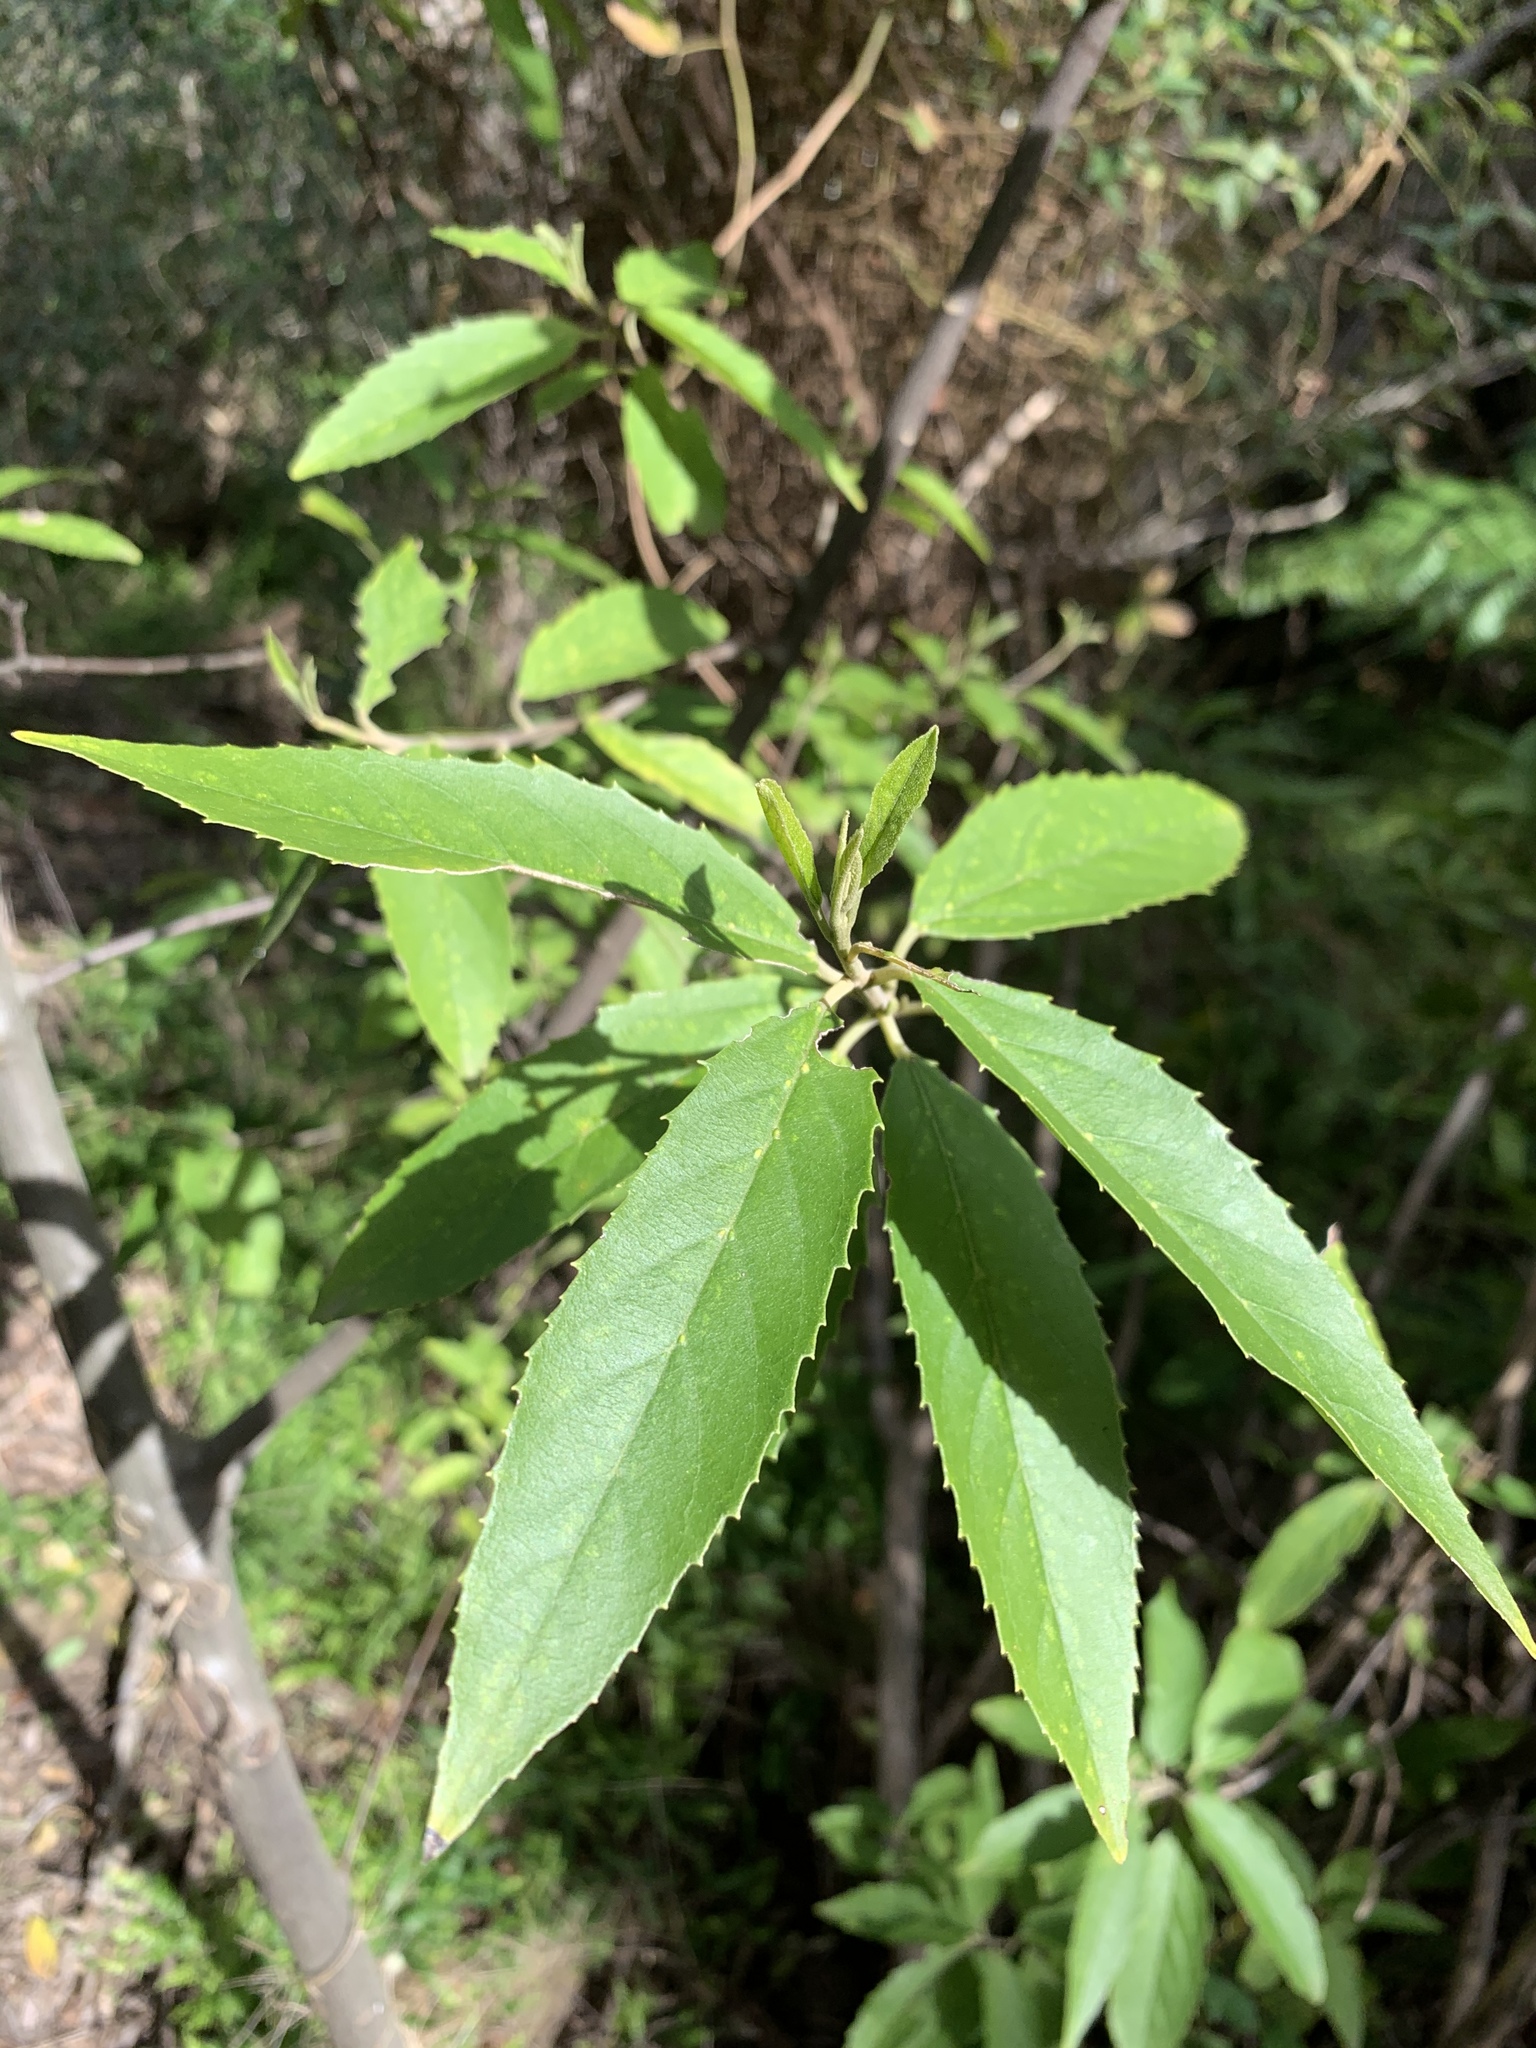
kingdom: Plantae
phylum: Tracheophyta
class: Magnoliopsida
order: Malpighiales
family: Achariaceae
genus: Kiggelaria
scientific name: Kiggelaria africana
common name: Wild peach
